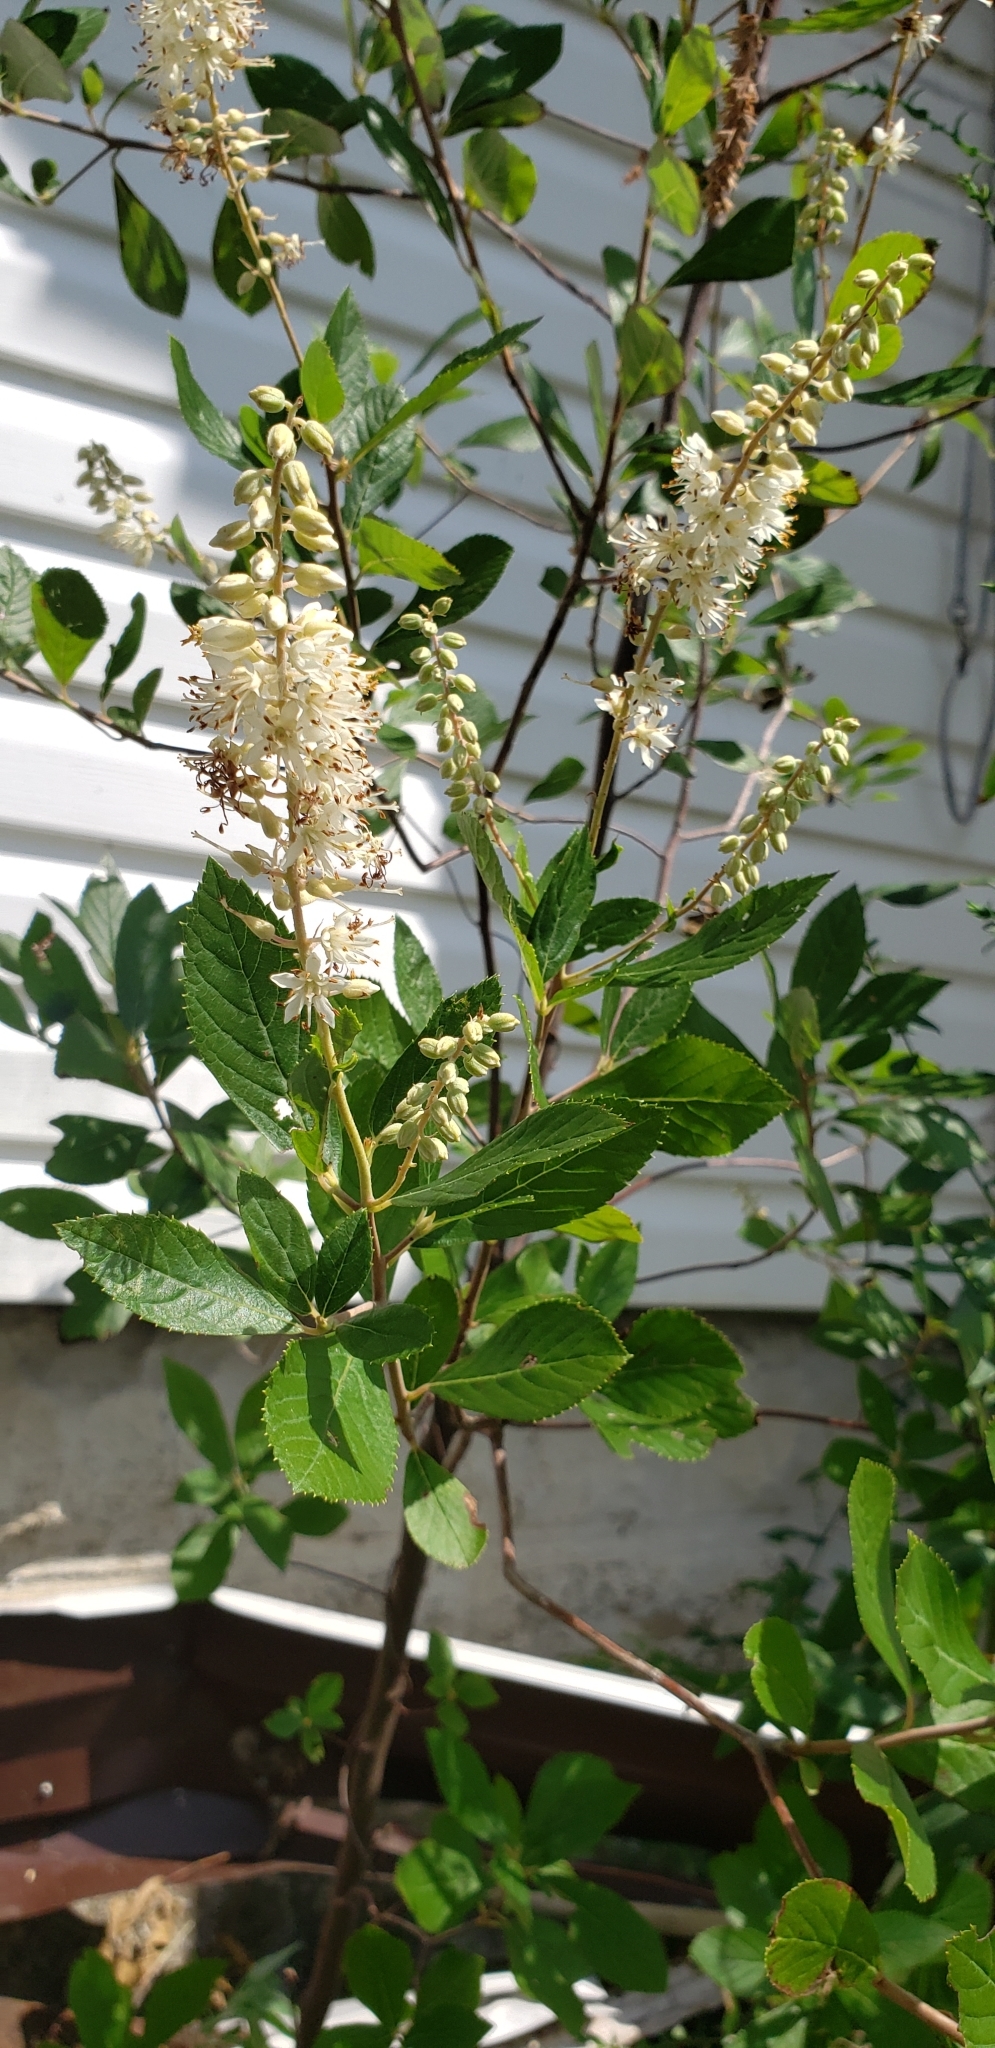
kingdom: Plantae
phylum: Tracheophyta
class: Magnoliopsida
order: Ericales
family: Clethraceae
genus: Clethra
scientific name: Clethra alnifolia
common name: Sweet pepperbush
